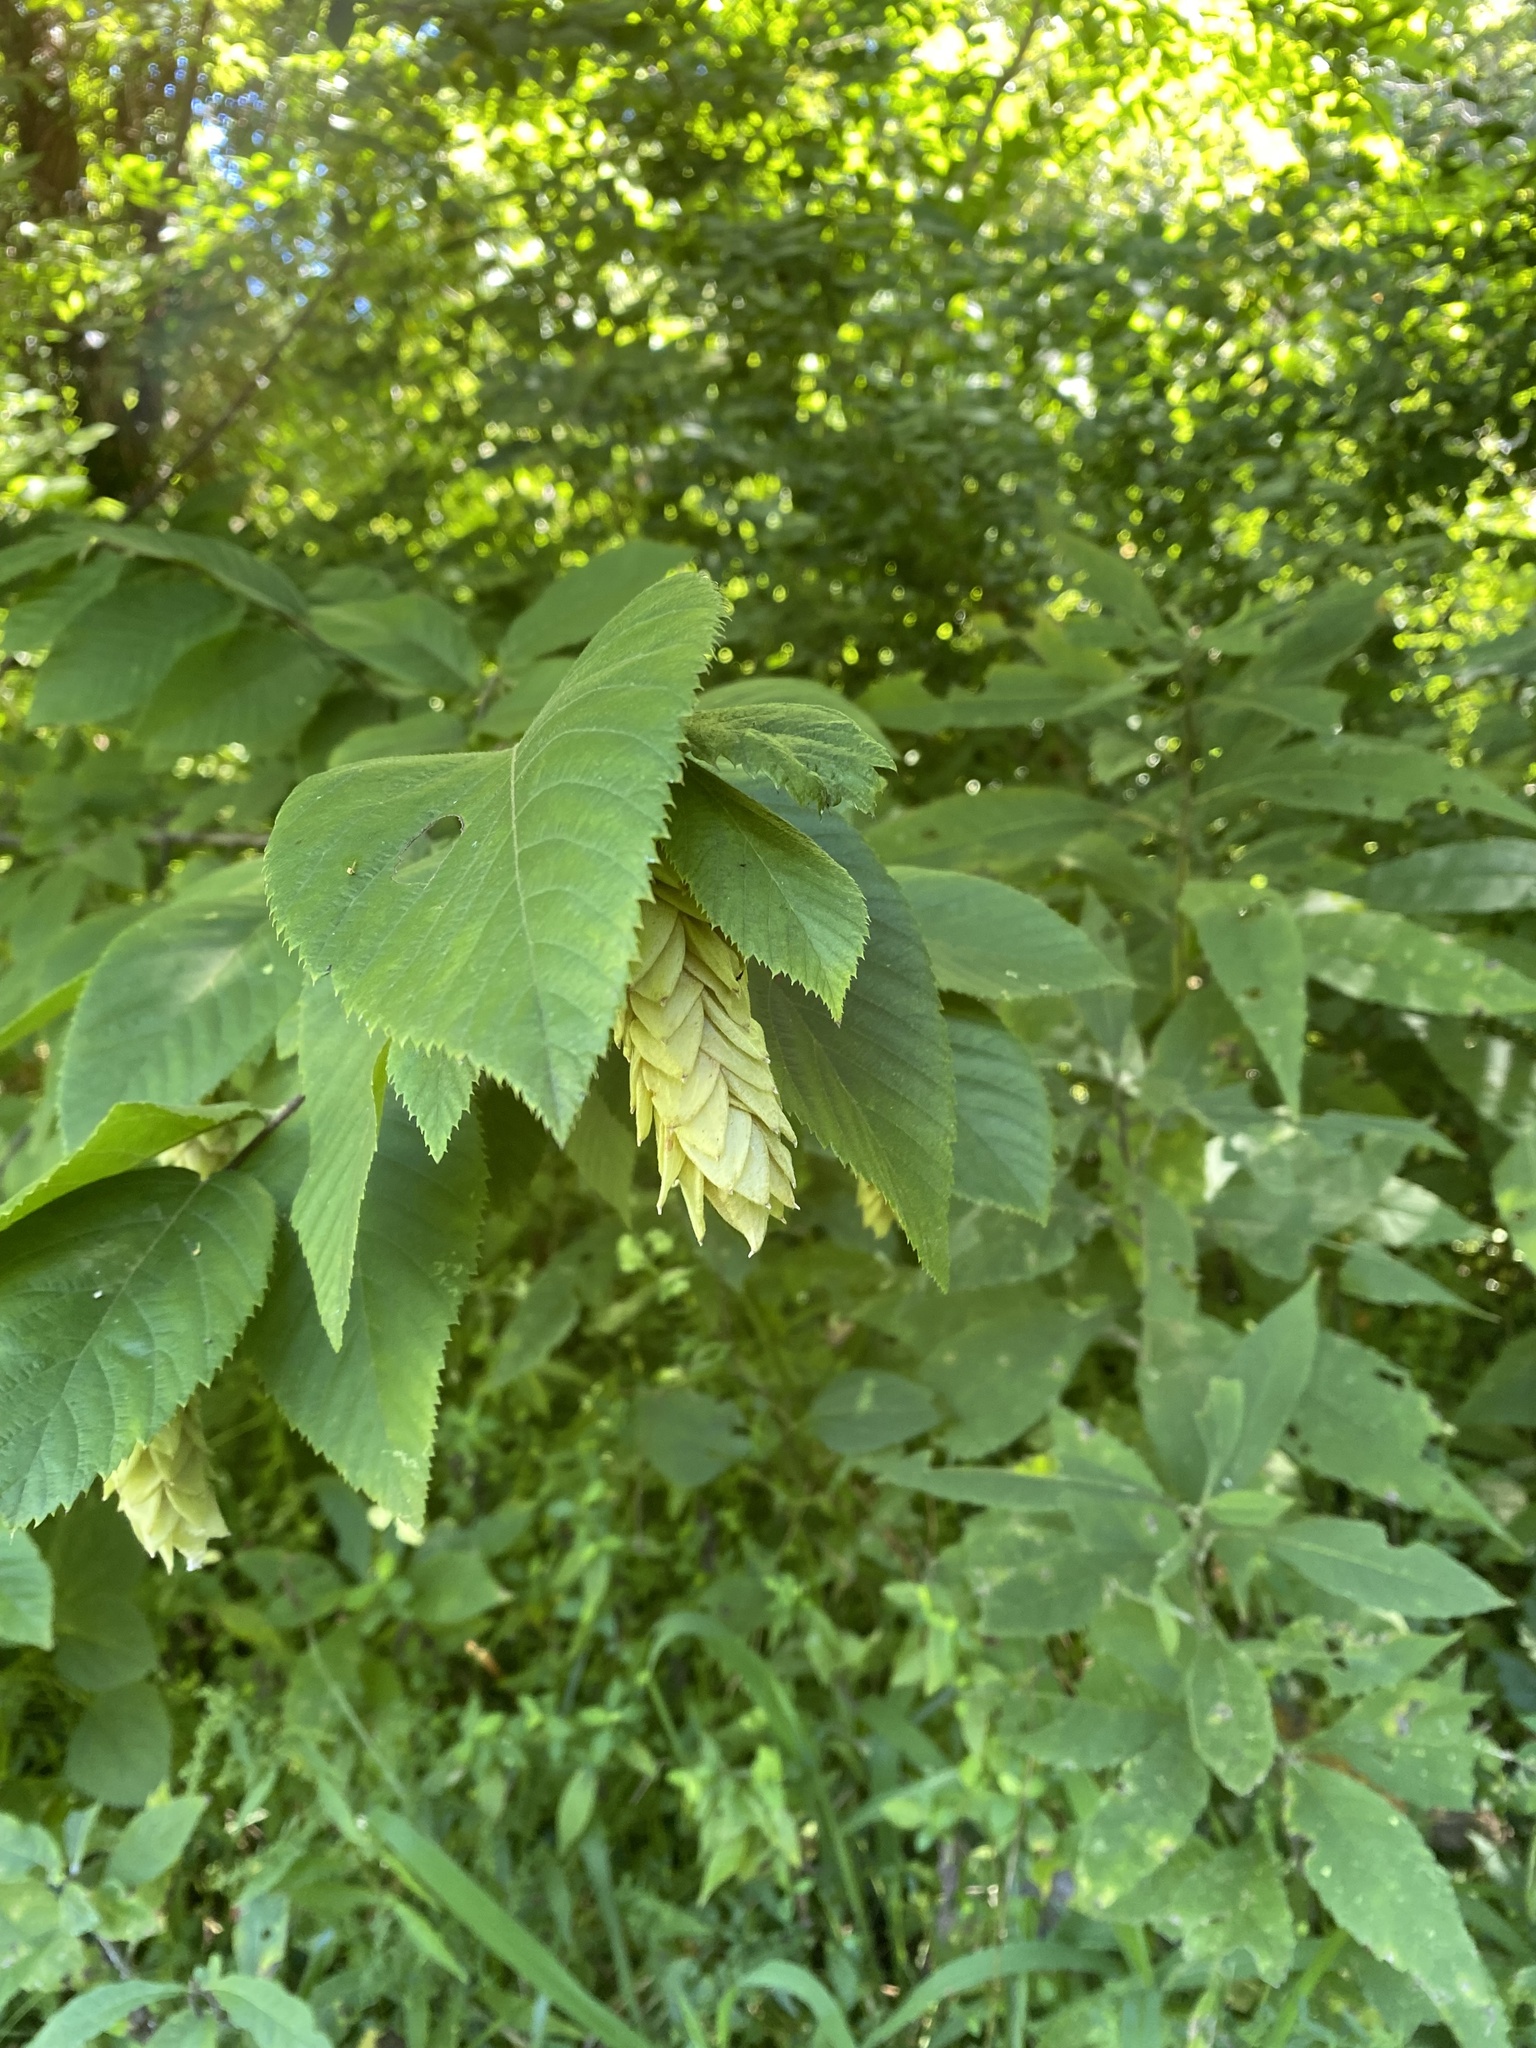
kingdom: Plantae
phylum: Tracheophyta
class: Magnoliopsida
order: Fagales
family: Betulaceae
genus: Ostrya
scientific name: Ostrya virginiana
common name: Ironwood
